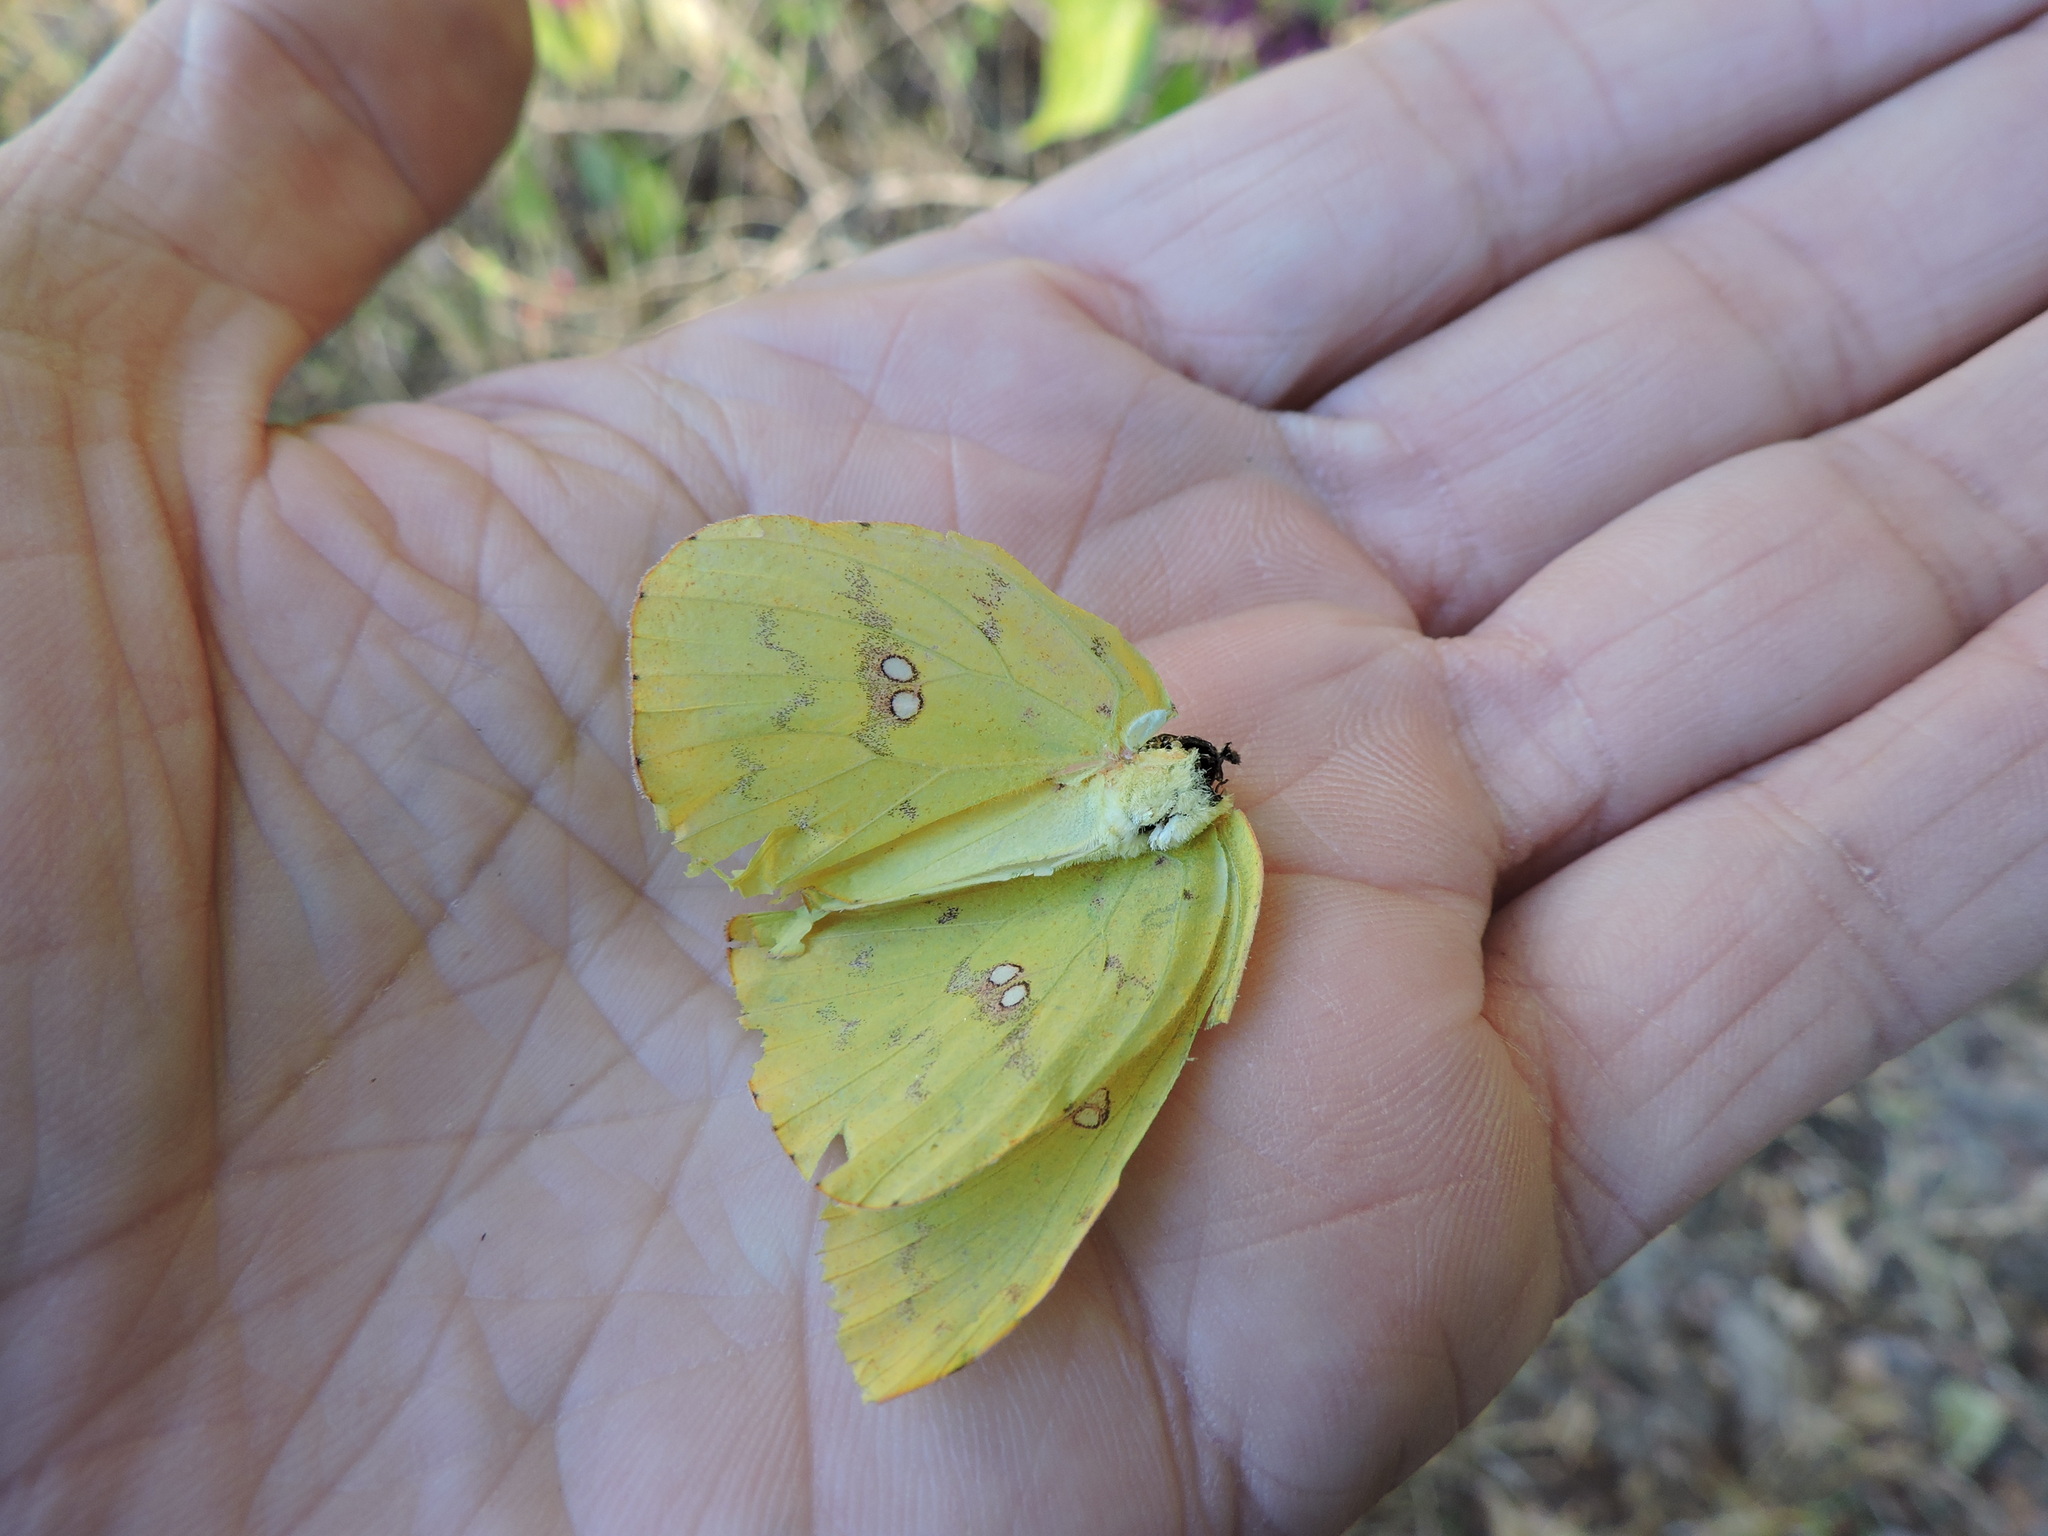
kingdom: Animalia
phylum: Arthropoda
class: Insecta
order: Lepidoptera
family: Pieridae
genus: Phoebis
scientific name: Phoebis sennae
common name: Cloudless sulphur
